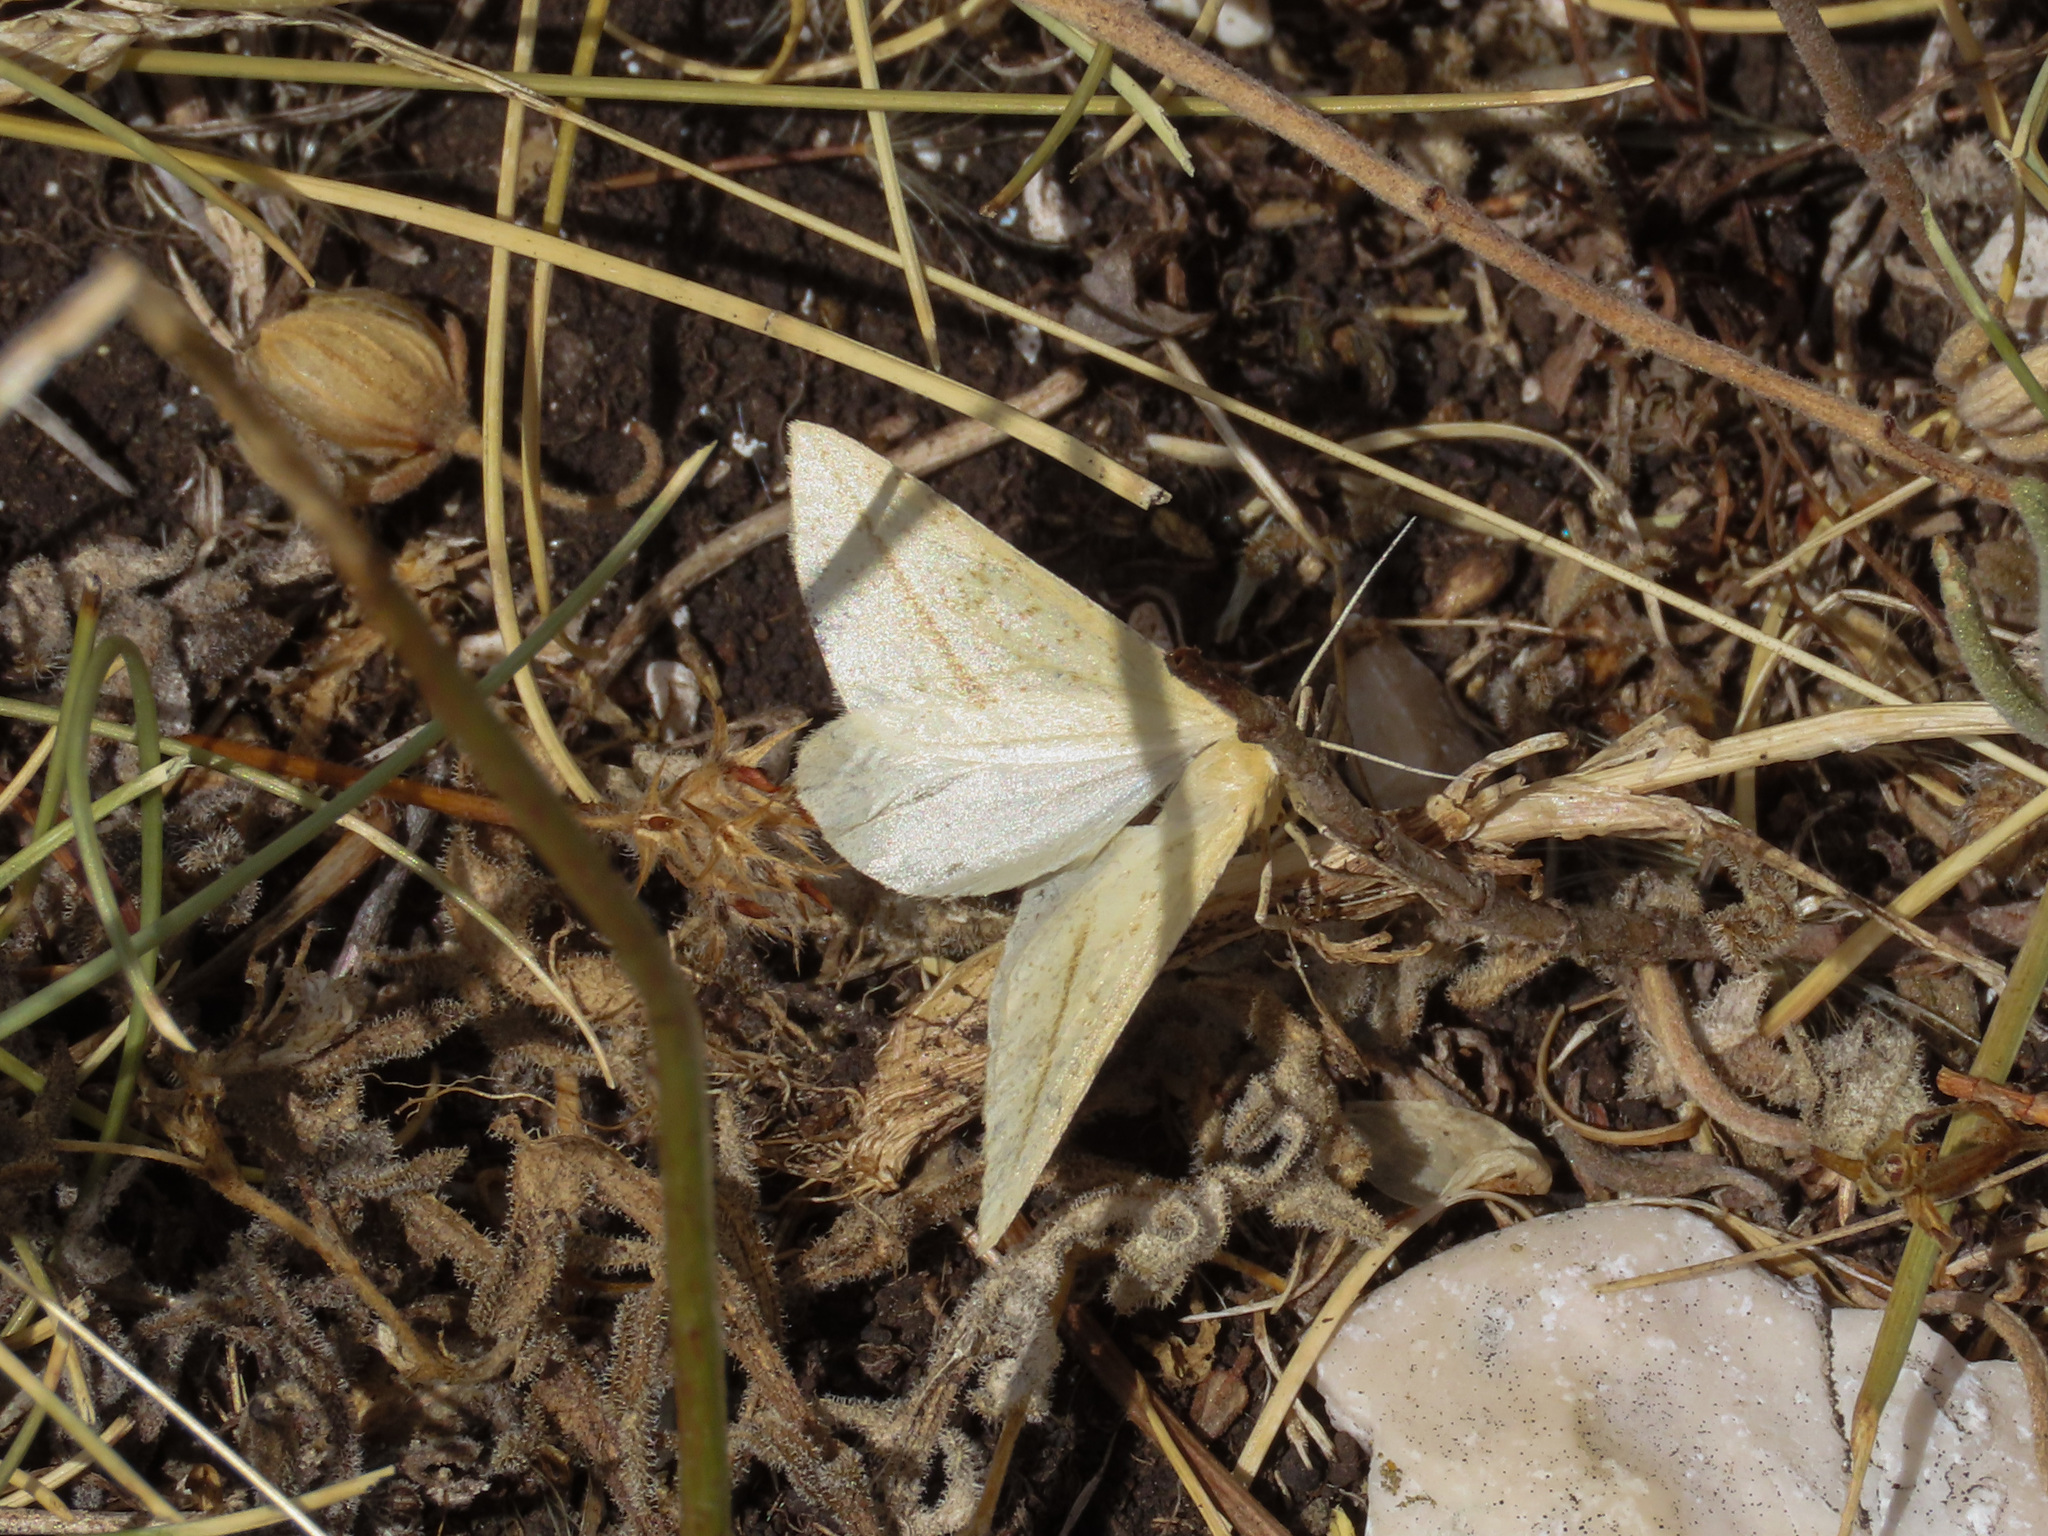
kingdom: Animalia
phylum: Arthropoda
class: Insecta
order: Lepidoptera
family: Geometridae
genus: Aspitates
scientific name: Aspitates gilvaria
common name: Straw belle
